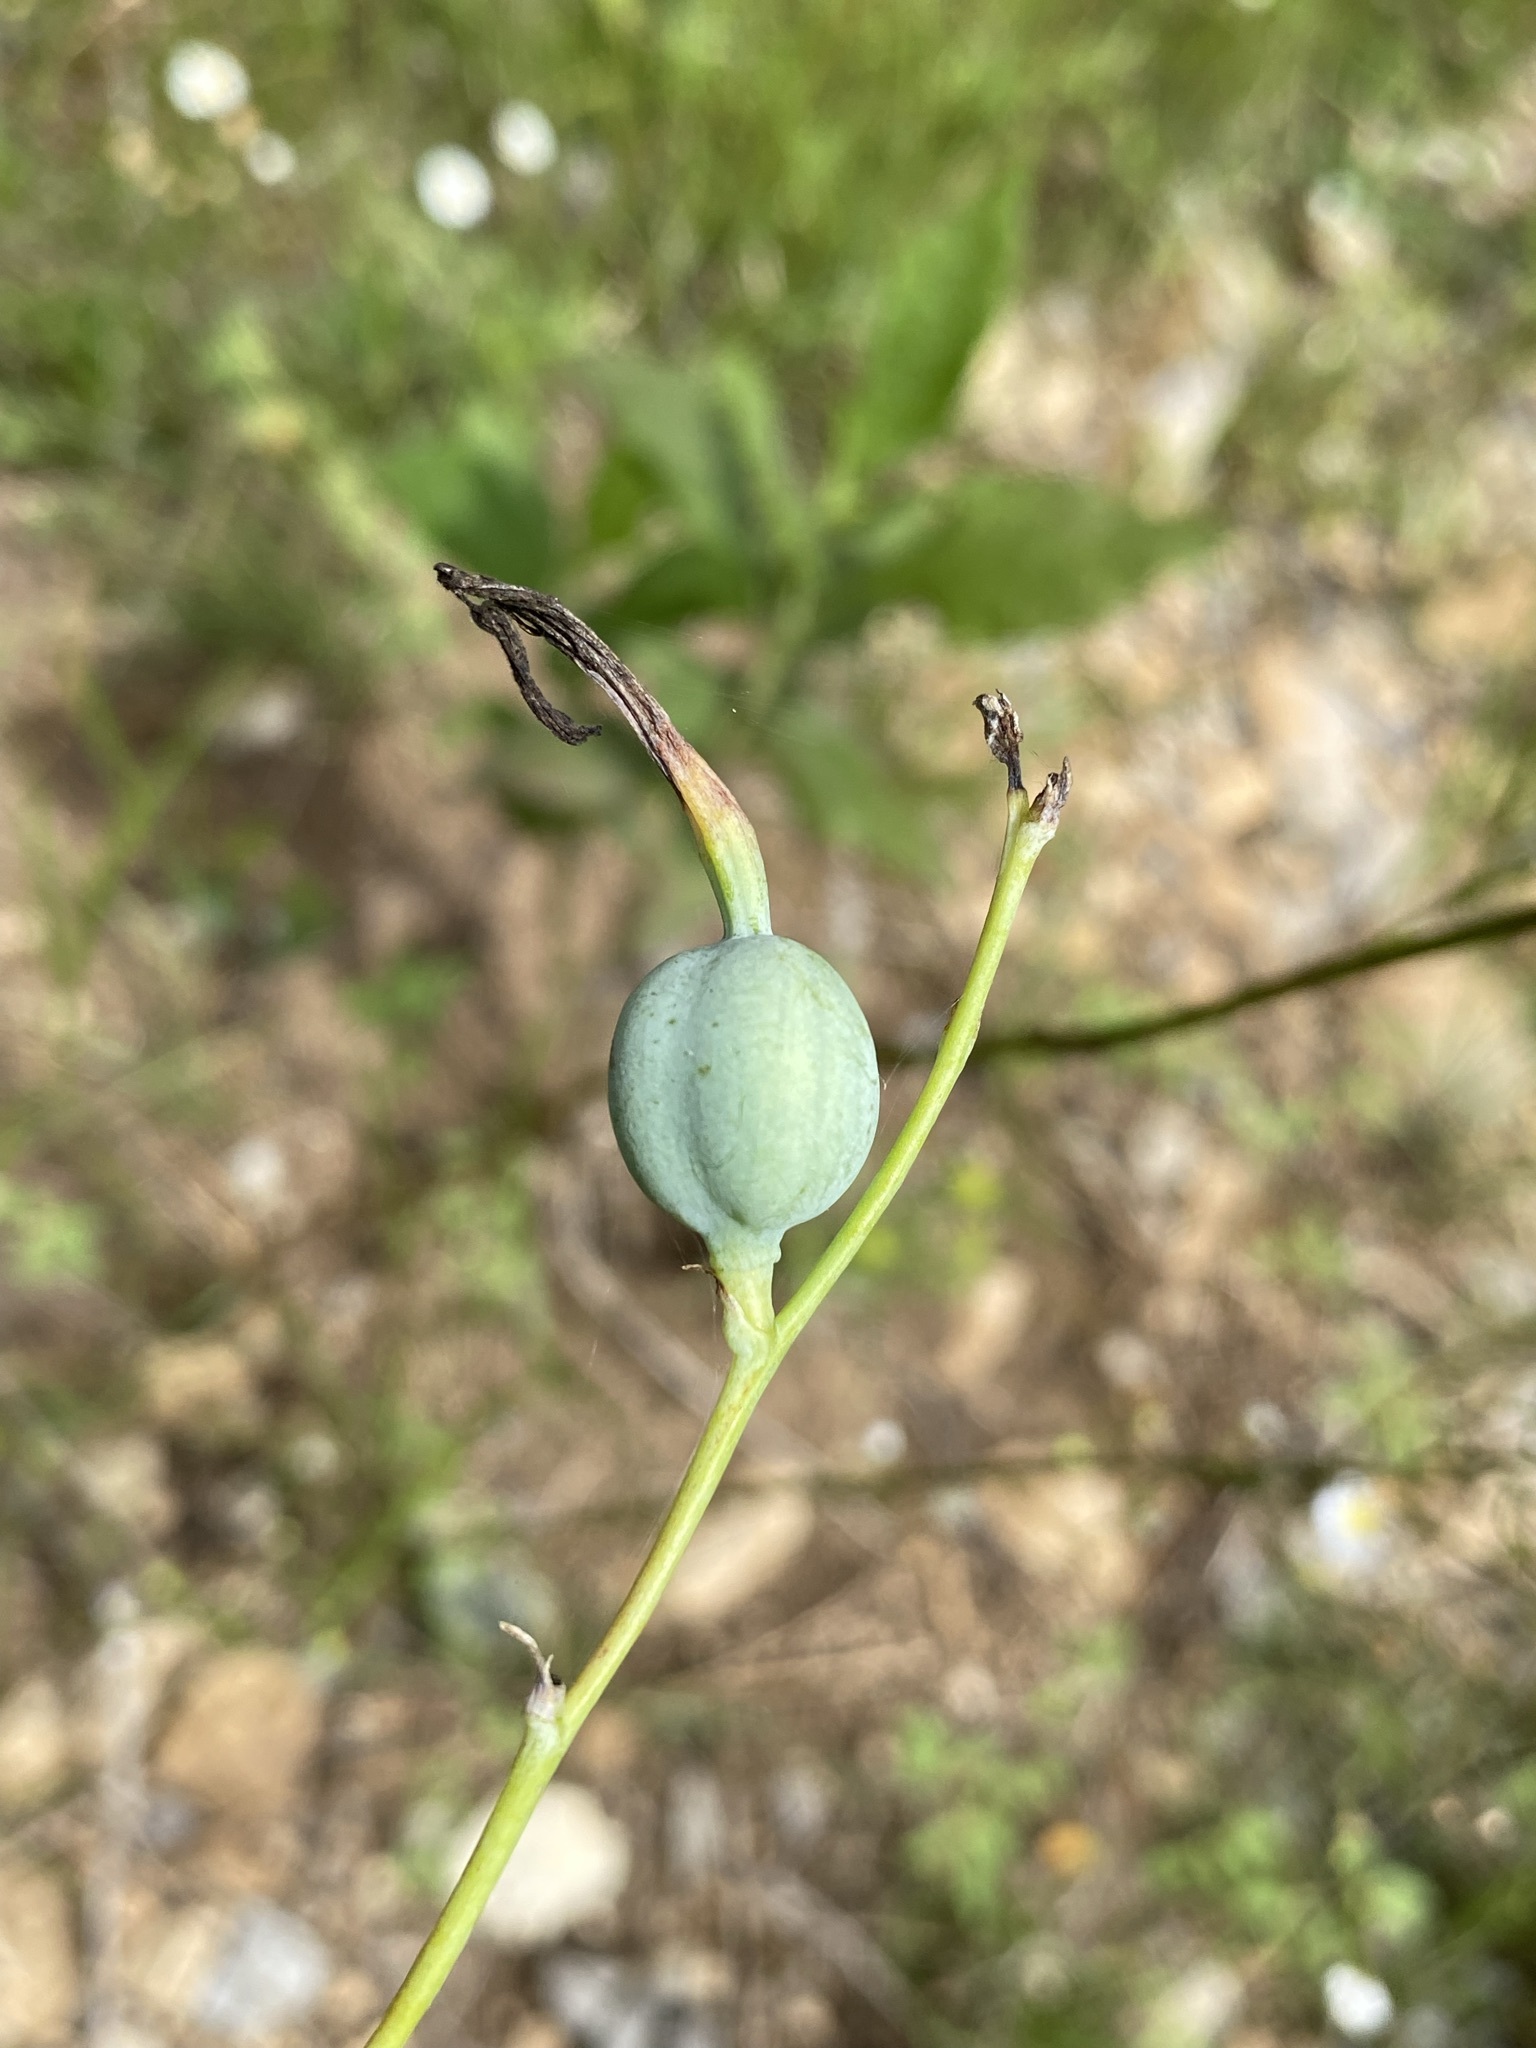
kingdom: Plantae
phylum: Tracheophyta
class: Liliopsida
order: Asparagales
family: Asparagaceae
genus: Agave
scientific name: Agave virginica
